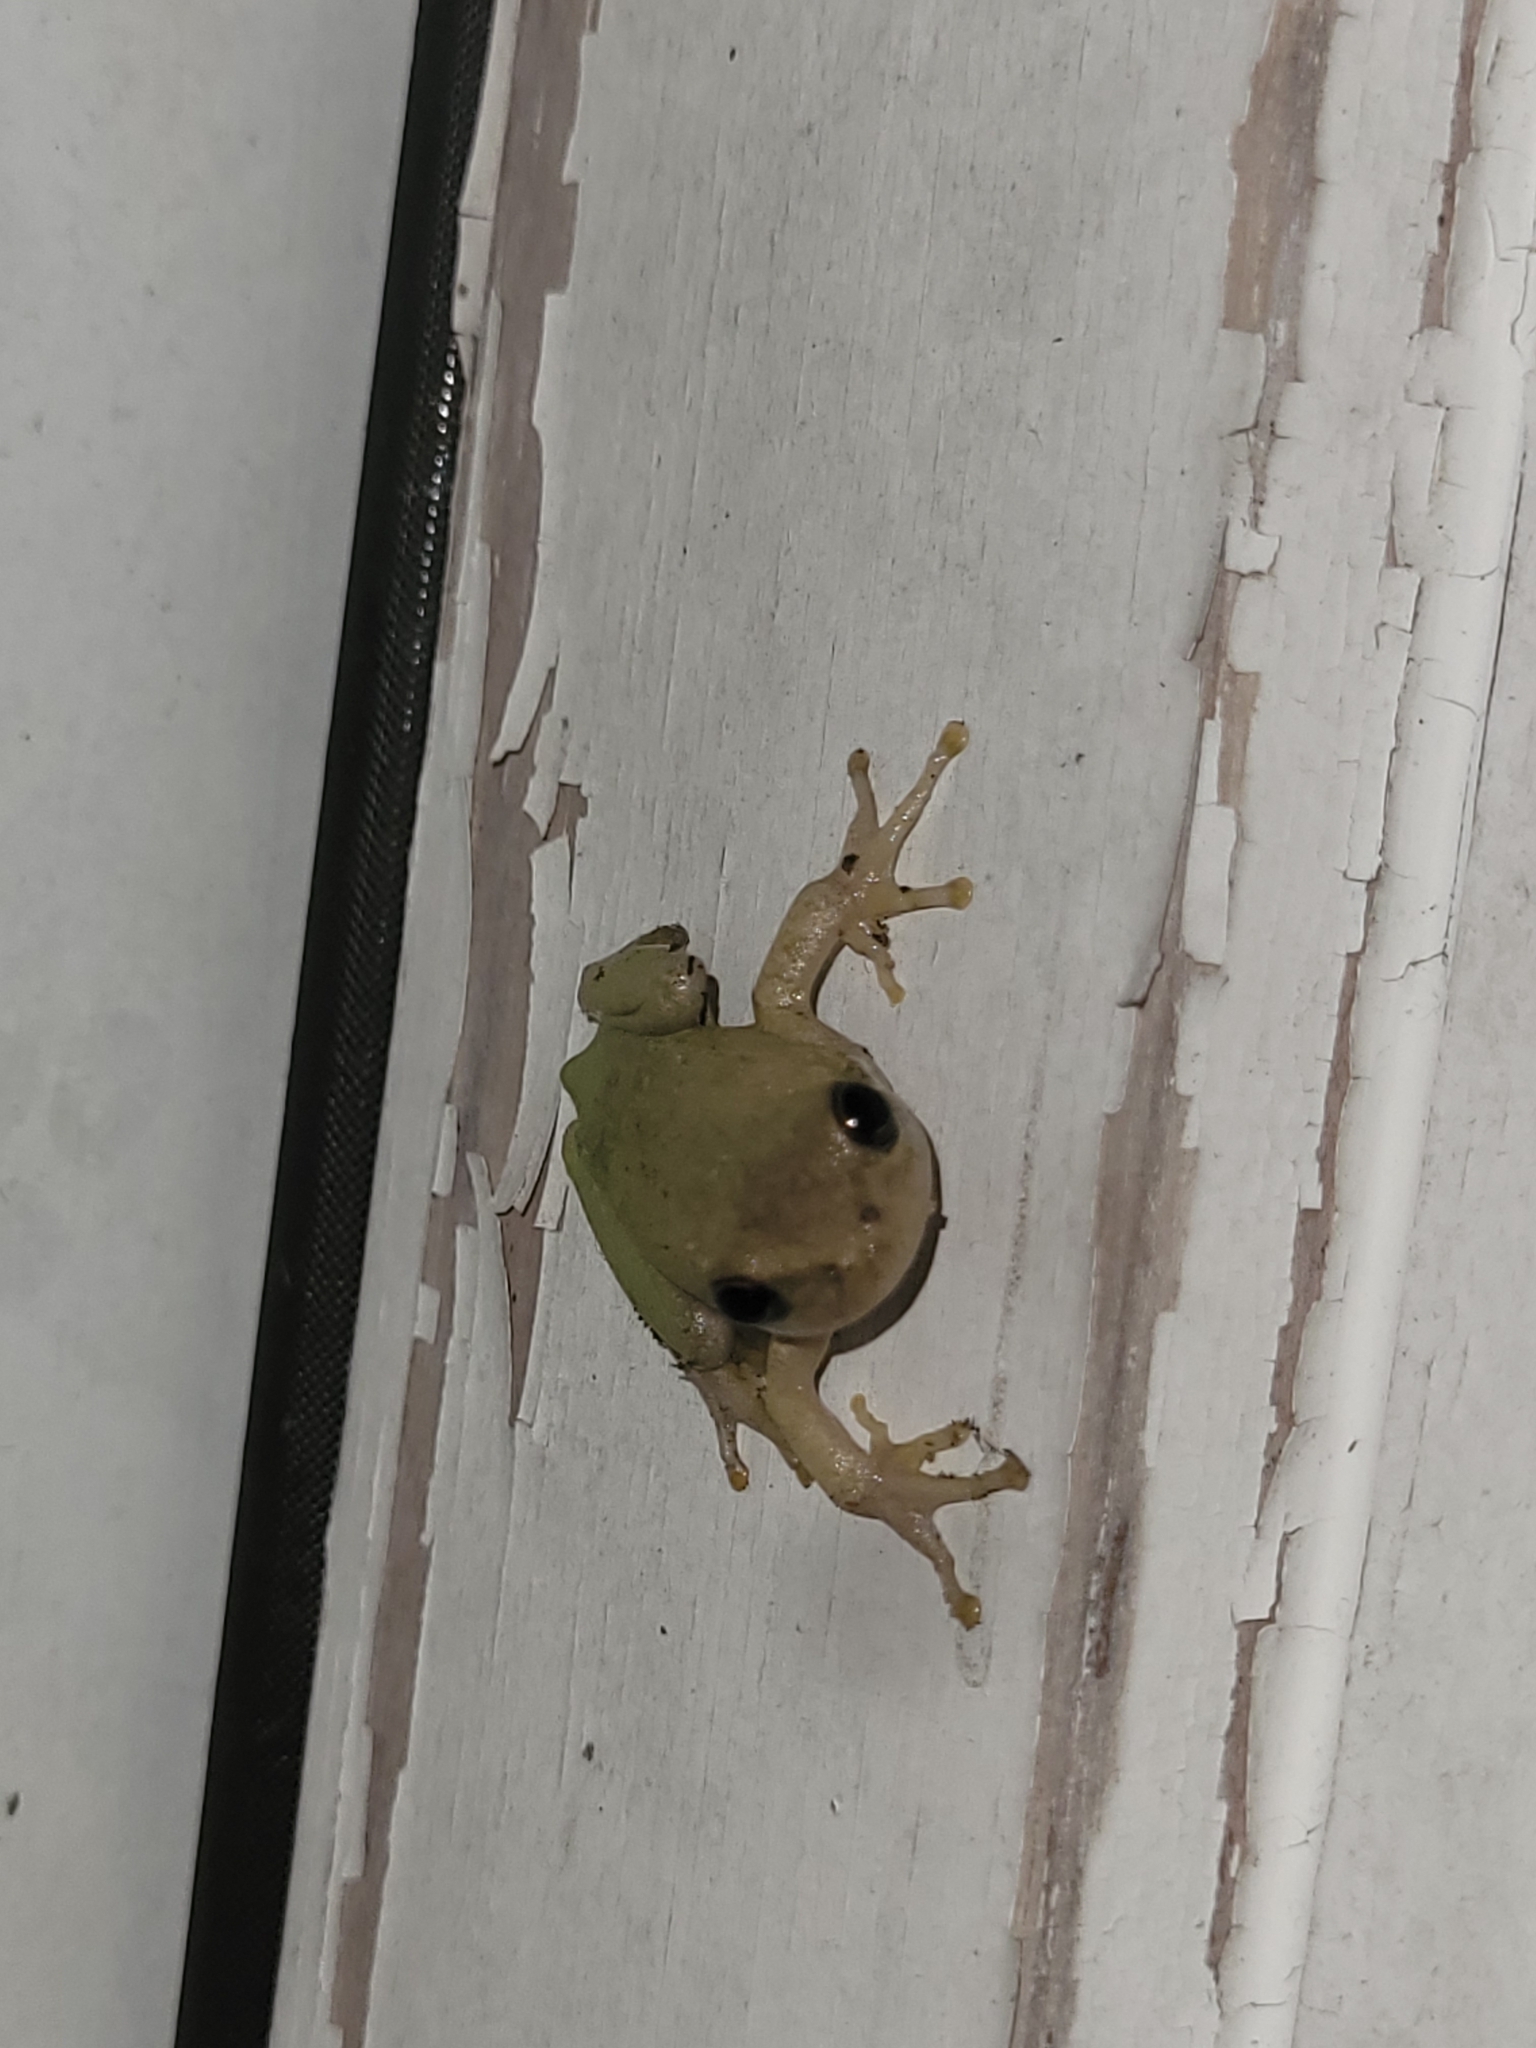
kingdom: Animalia
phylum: Chordata
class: Amphibia
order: Anura
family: Hylidae
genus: Dryophytes
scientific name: Dryophytes squirellus
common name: Squirrel treefrog
